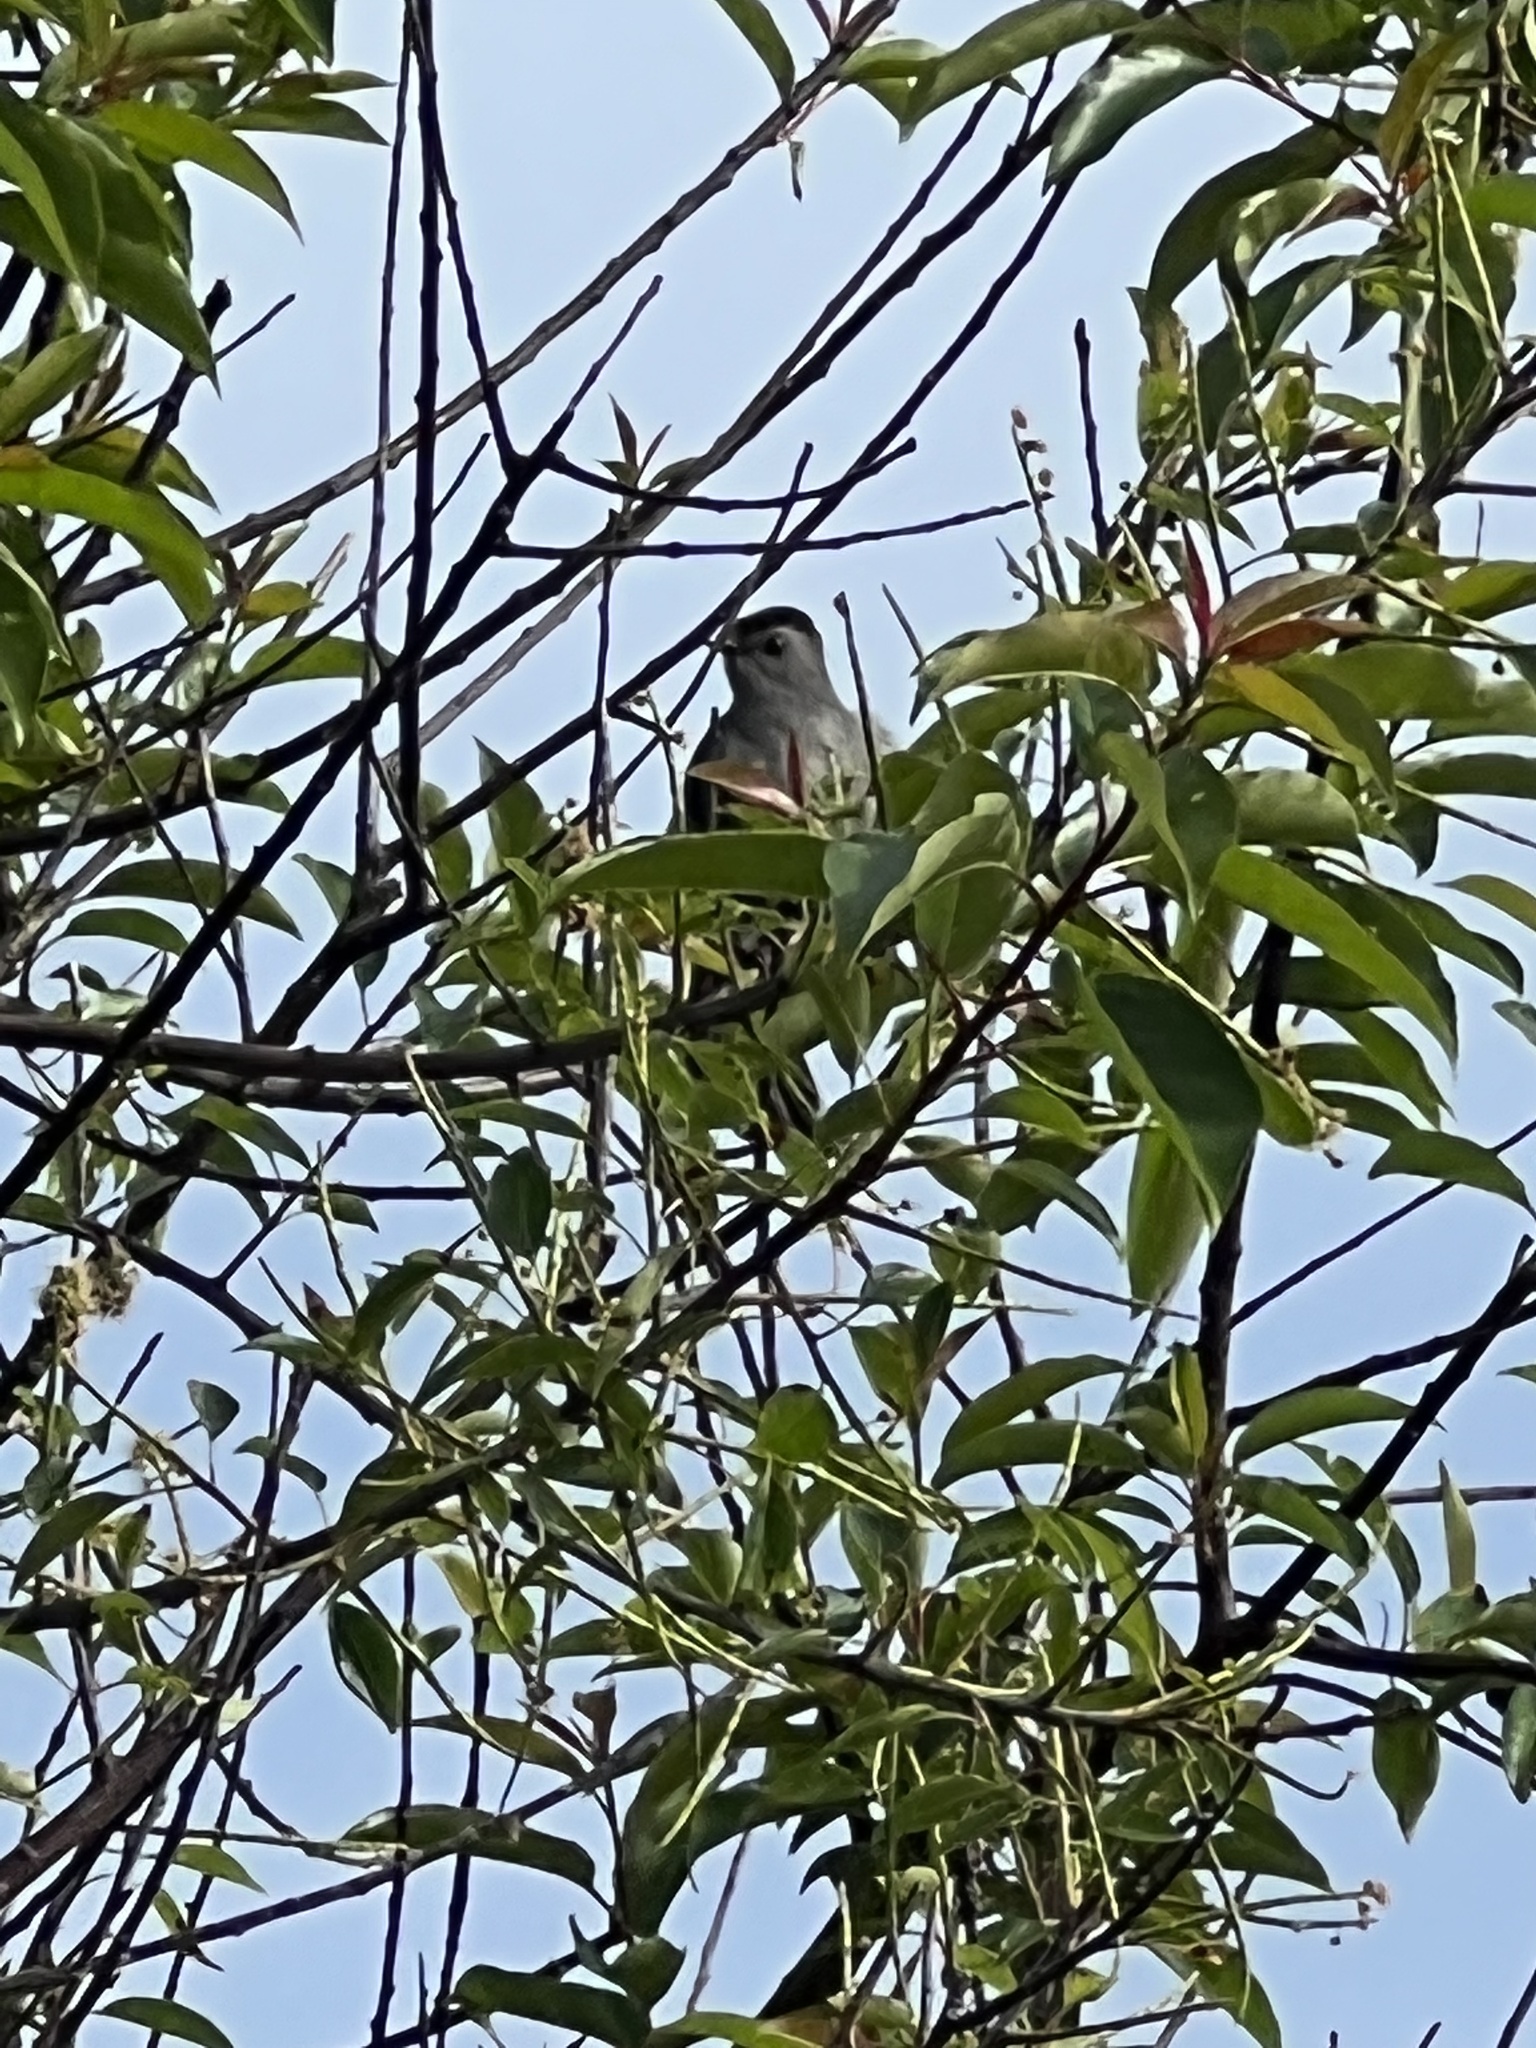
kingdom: Animalia
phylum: Chordata
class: Aves
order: Passeriformes
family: Mimidae
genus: Dumetella
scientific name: Dumetella carolinensis
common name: Gray catbird
